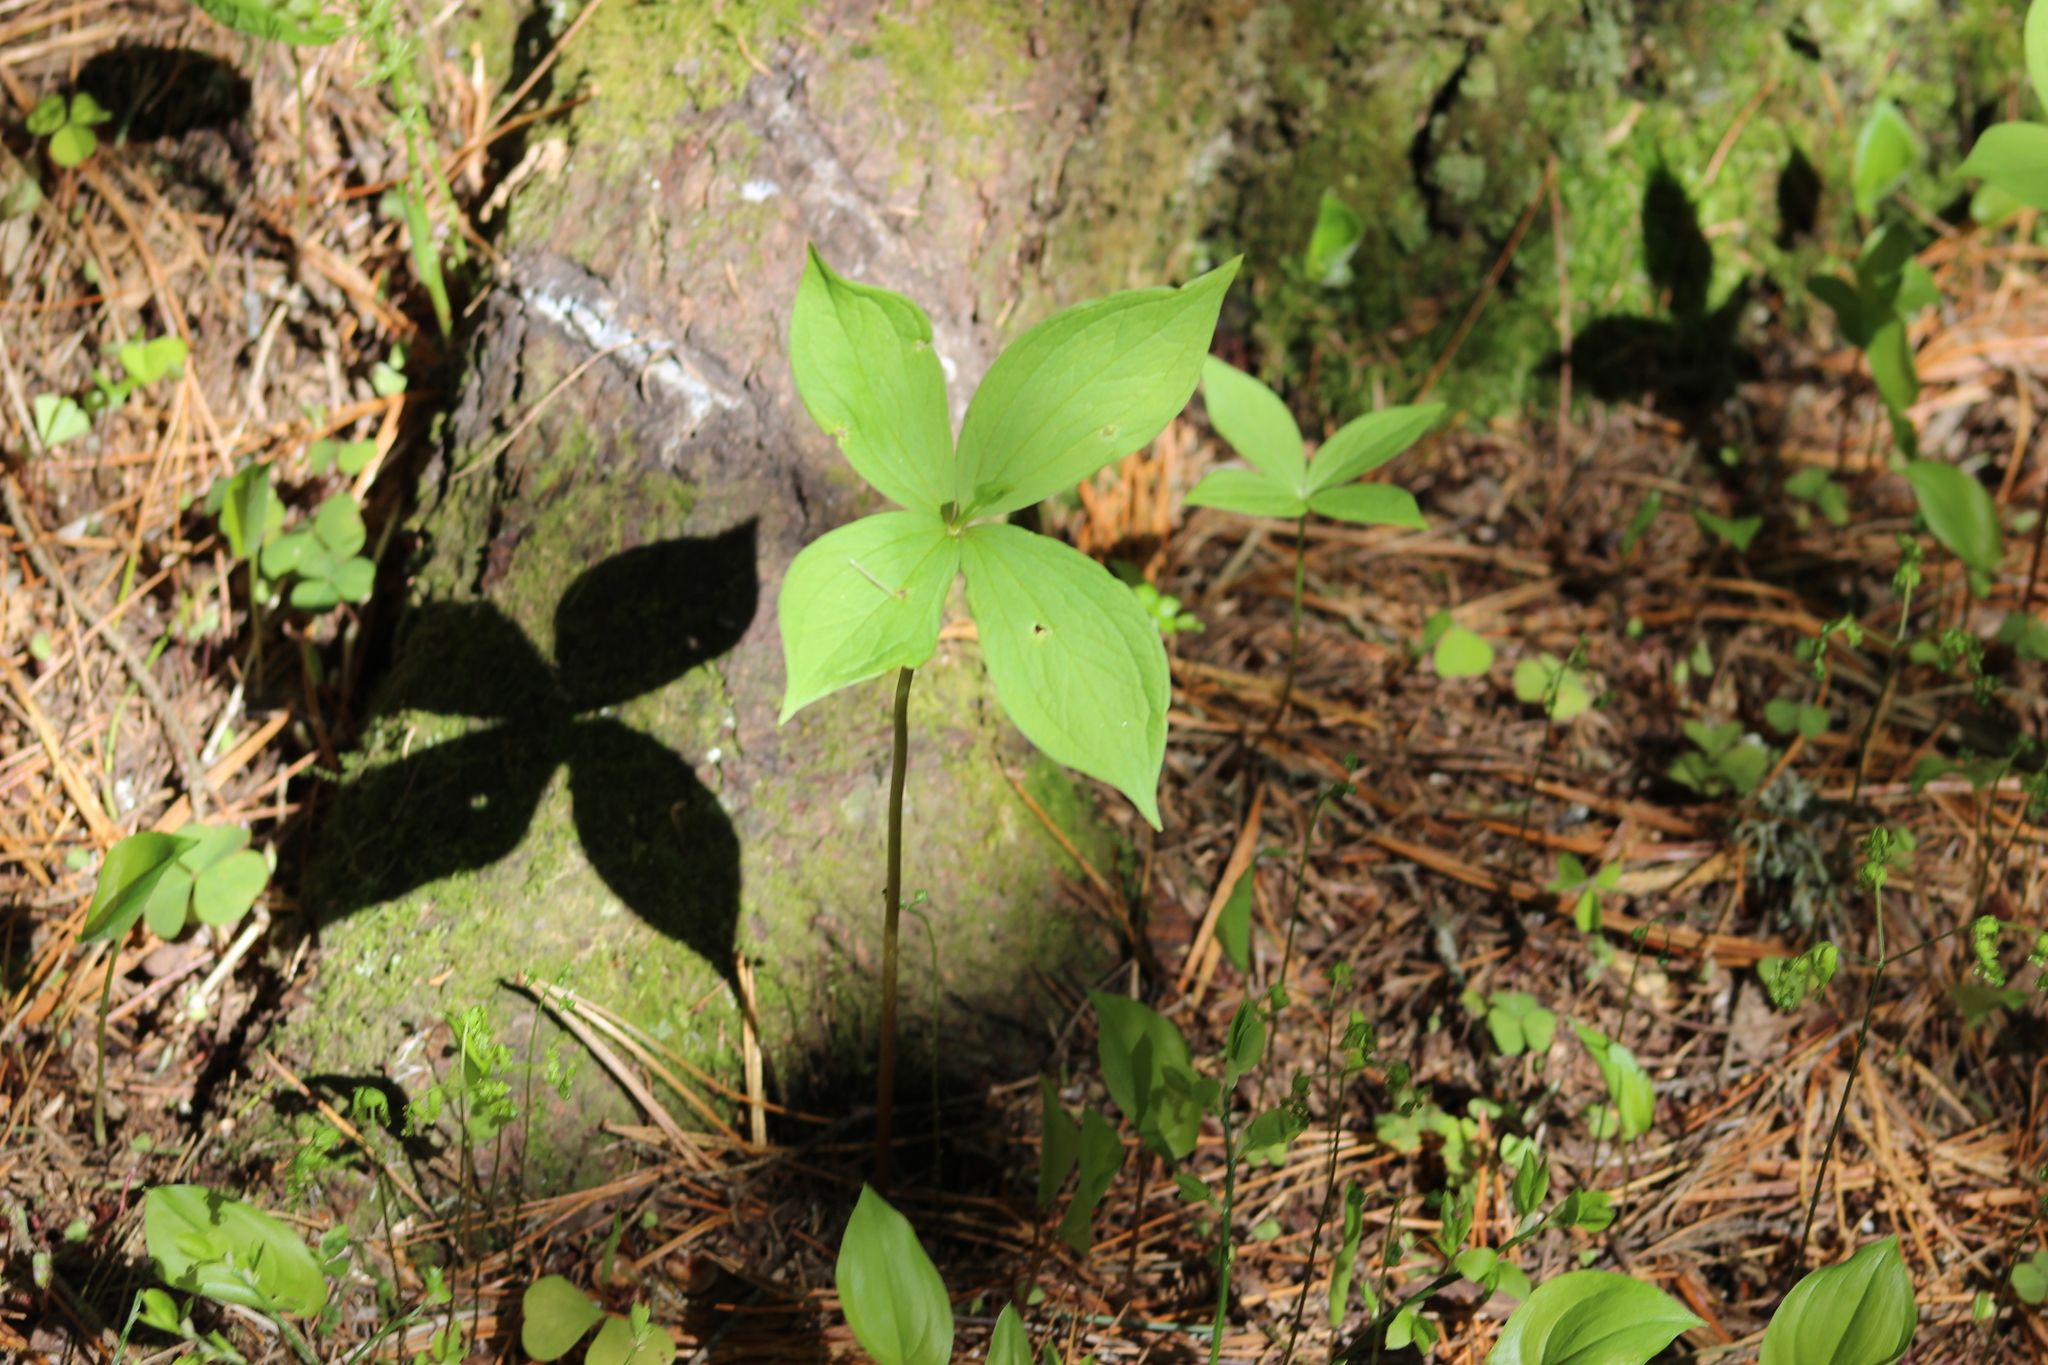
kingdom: Plantae
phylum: Tracheophyta
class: Liliopsida
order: Liliales
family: Melanthiaceae
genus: Paris
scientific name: Paris quadrifolia
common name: Herb-paris
